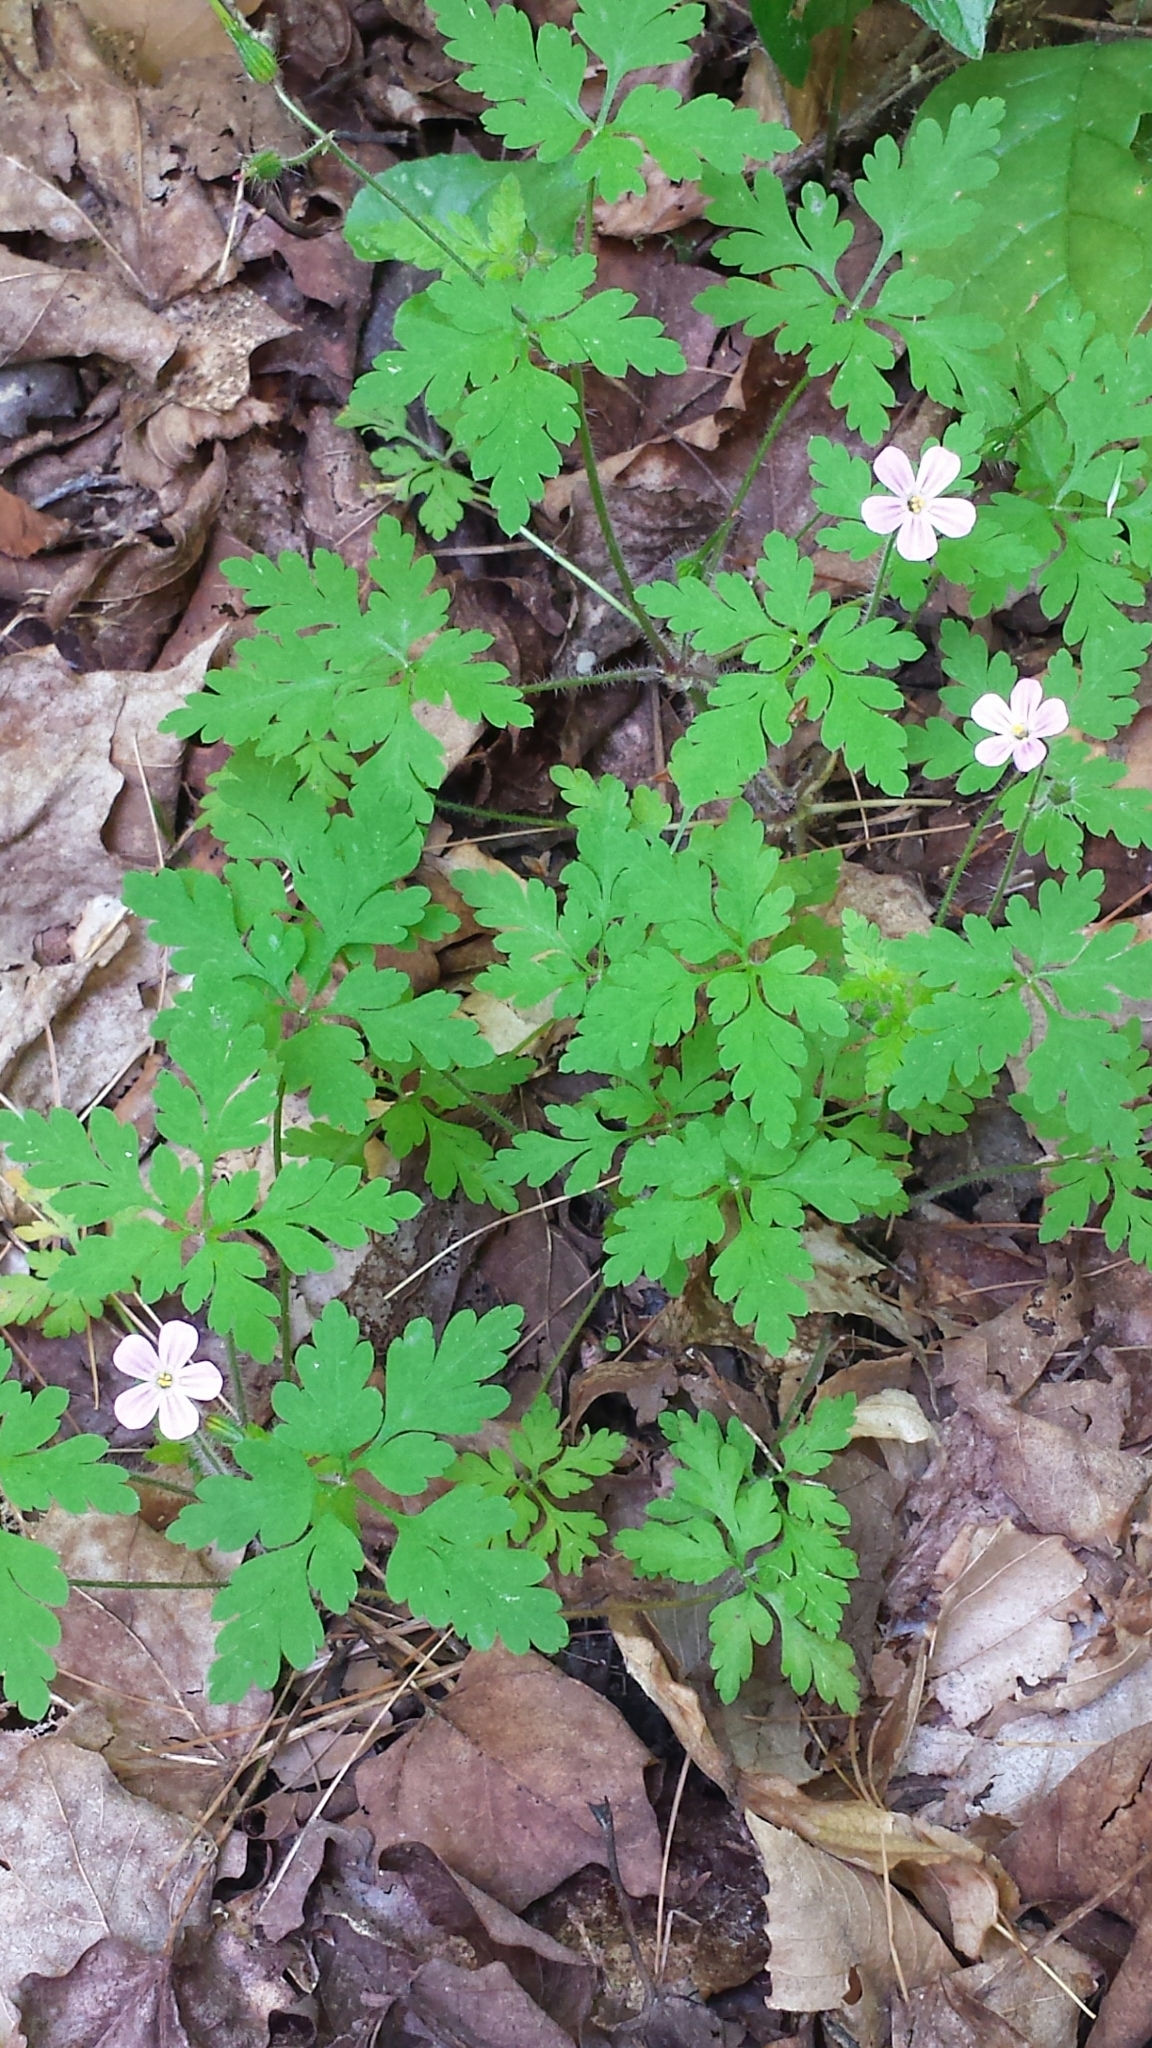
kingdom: Plantae
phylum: Tracheophyta
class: Magnoliopsida
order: Geraniales
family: Geraniaceae
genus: Geranium
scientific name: Geranium robertianum
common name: Herb-robert
